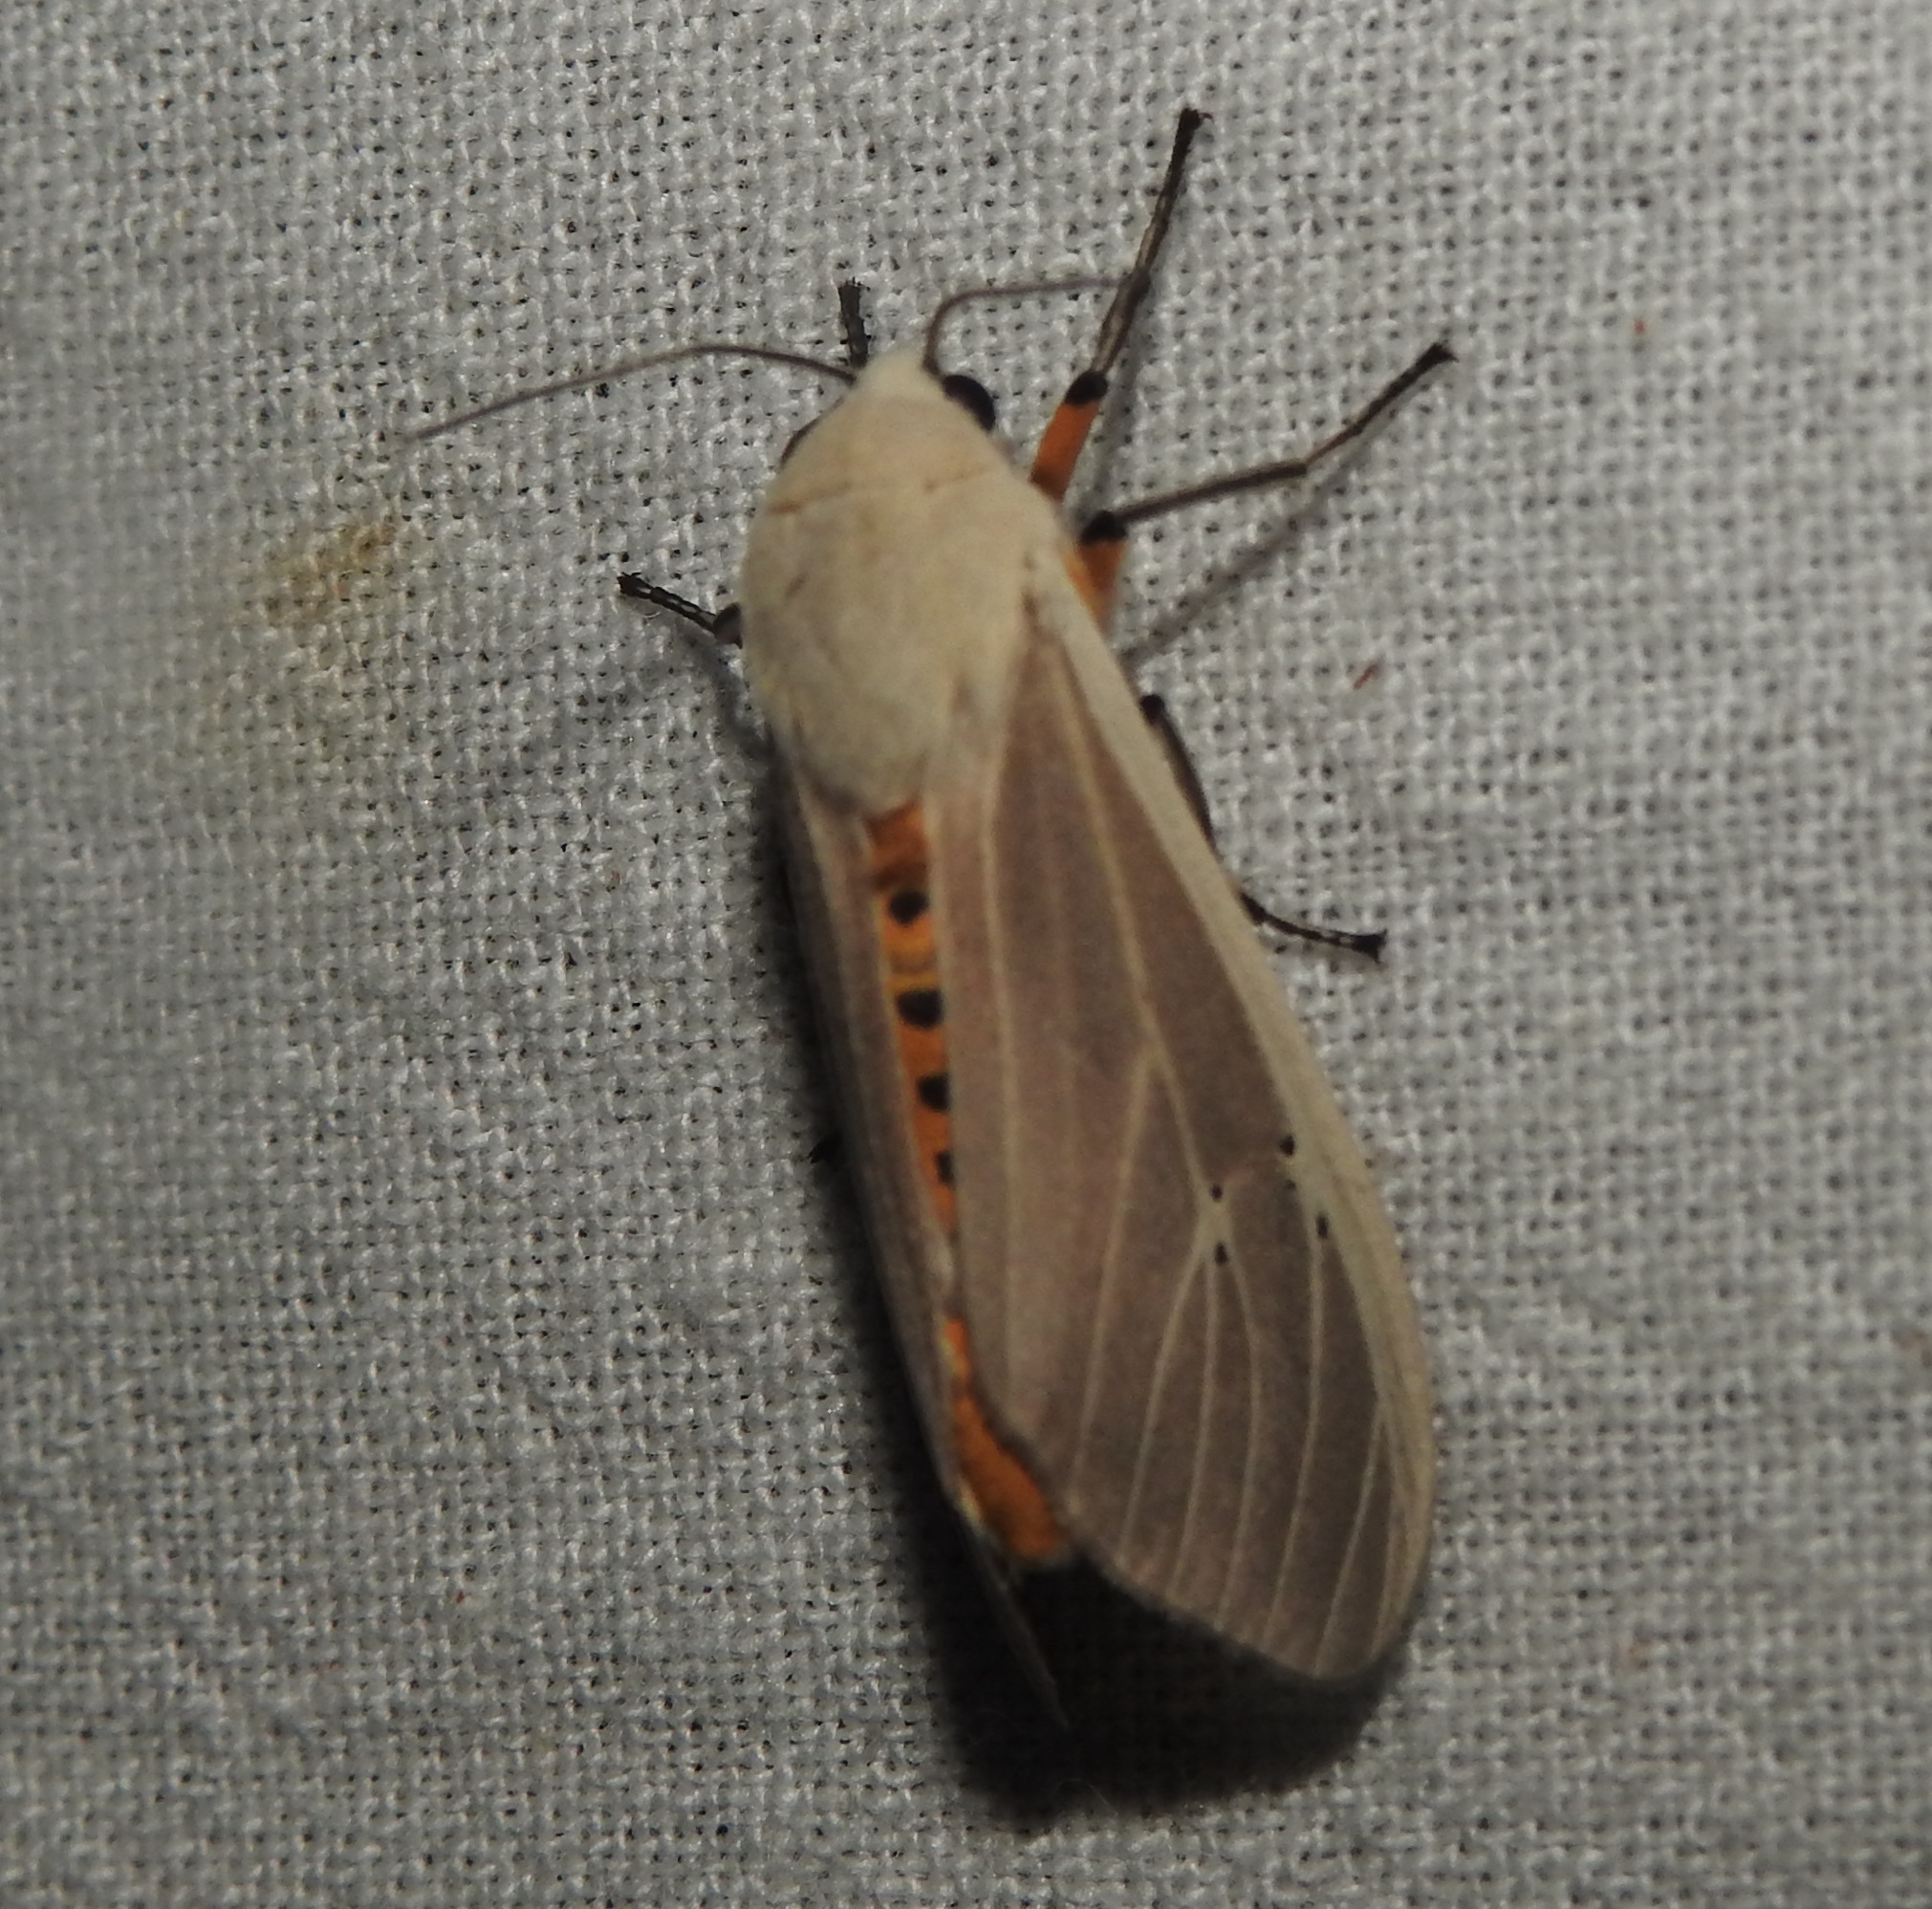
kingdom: Animalia
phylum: Arthropoda
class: Insecta
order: Lepidoptera
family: Erebidae
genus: Creatonotos
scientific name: Creatonotos transiens
